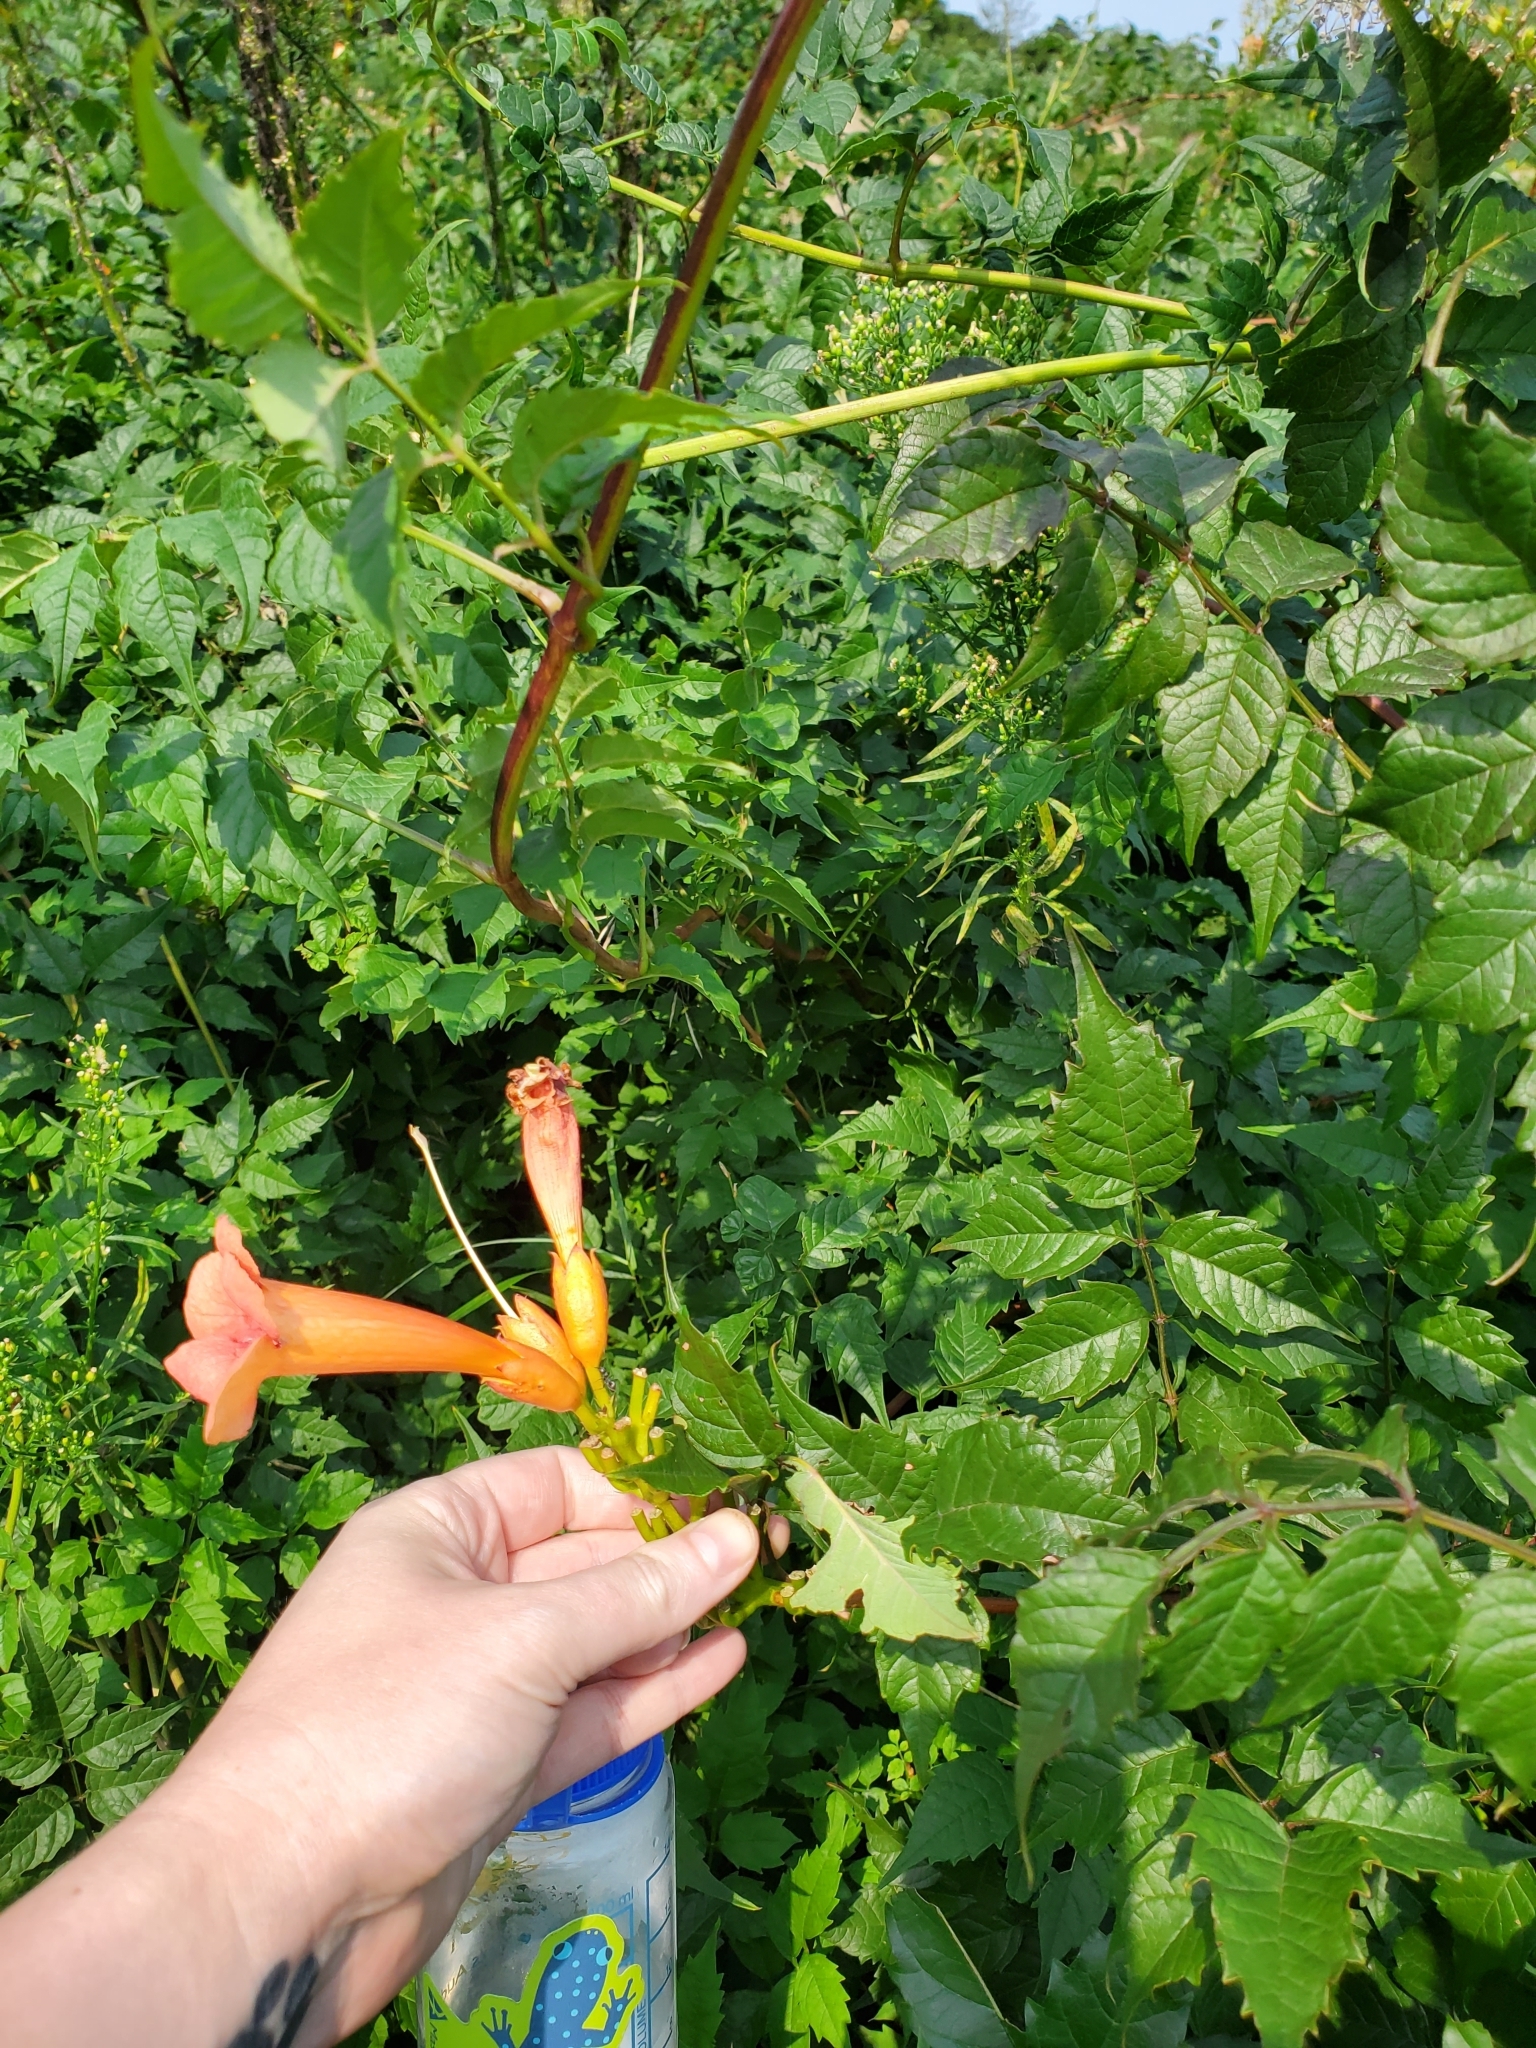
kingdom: Plantae
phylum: Tracheophyta
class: Magnoliopsida
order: Lamiales
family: Bignoniaceae
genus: Campsis
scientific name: Campsis radicans
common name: Trumpet-creeper
